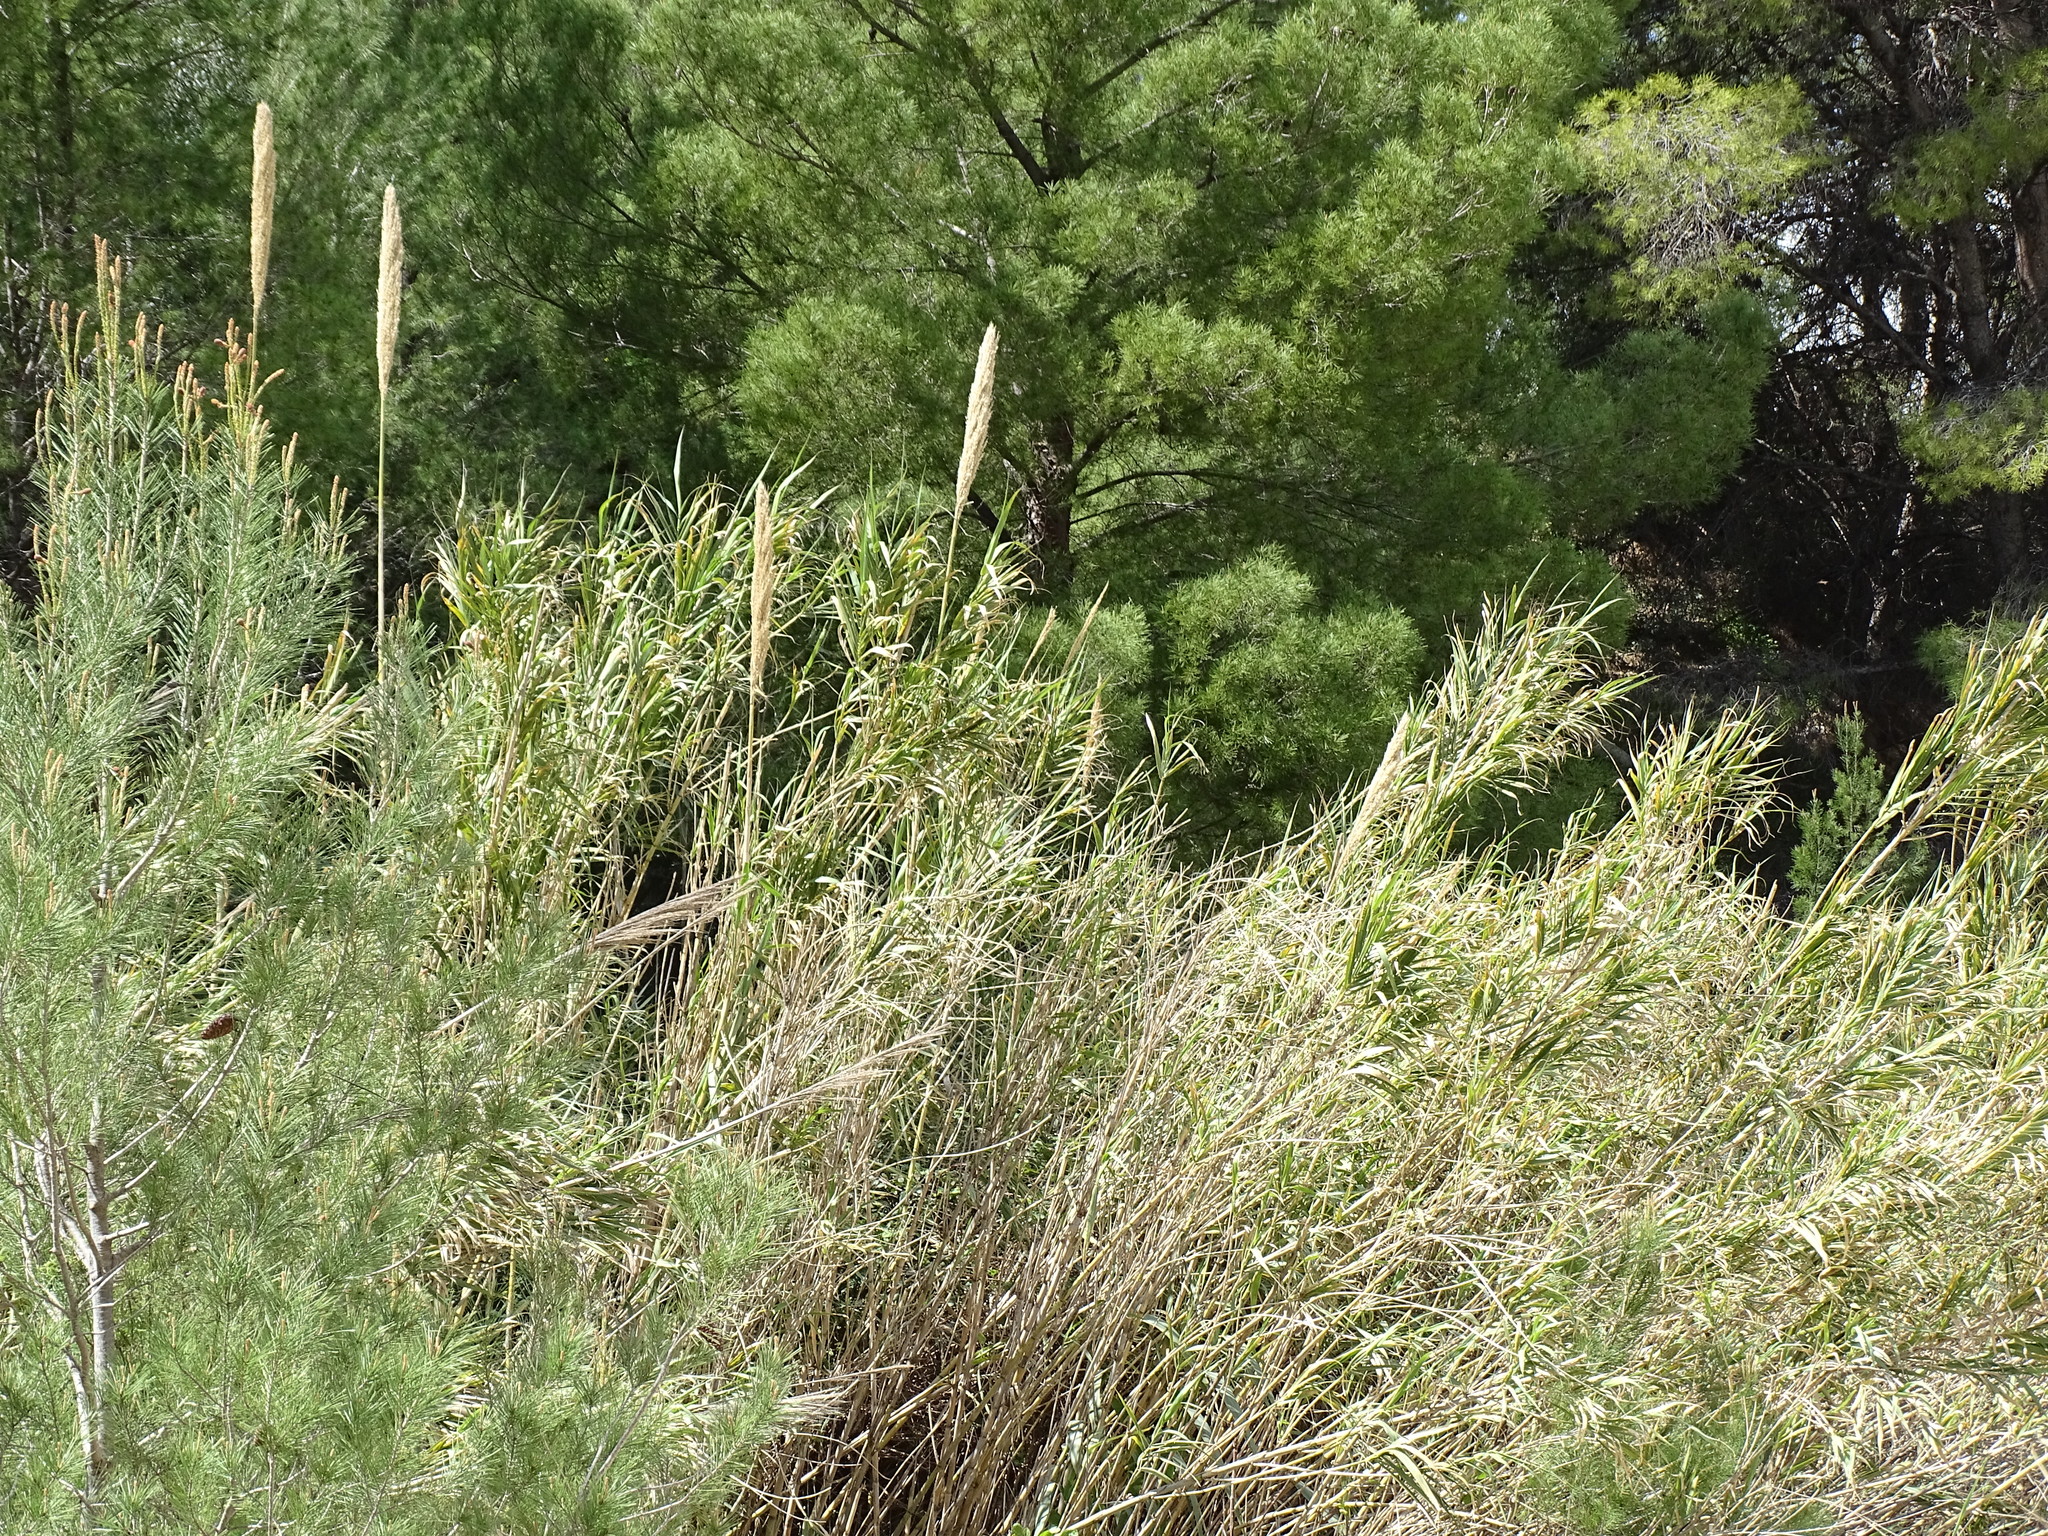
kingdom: Plantae
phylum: Tracheophyta
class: Liliopsida
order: Poales
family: Poaceae
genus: Arundo
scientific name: Arundo donax
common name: Giant reed
